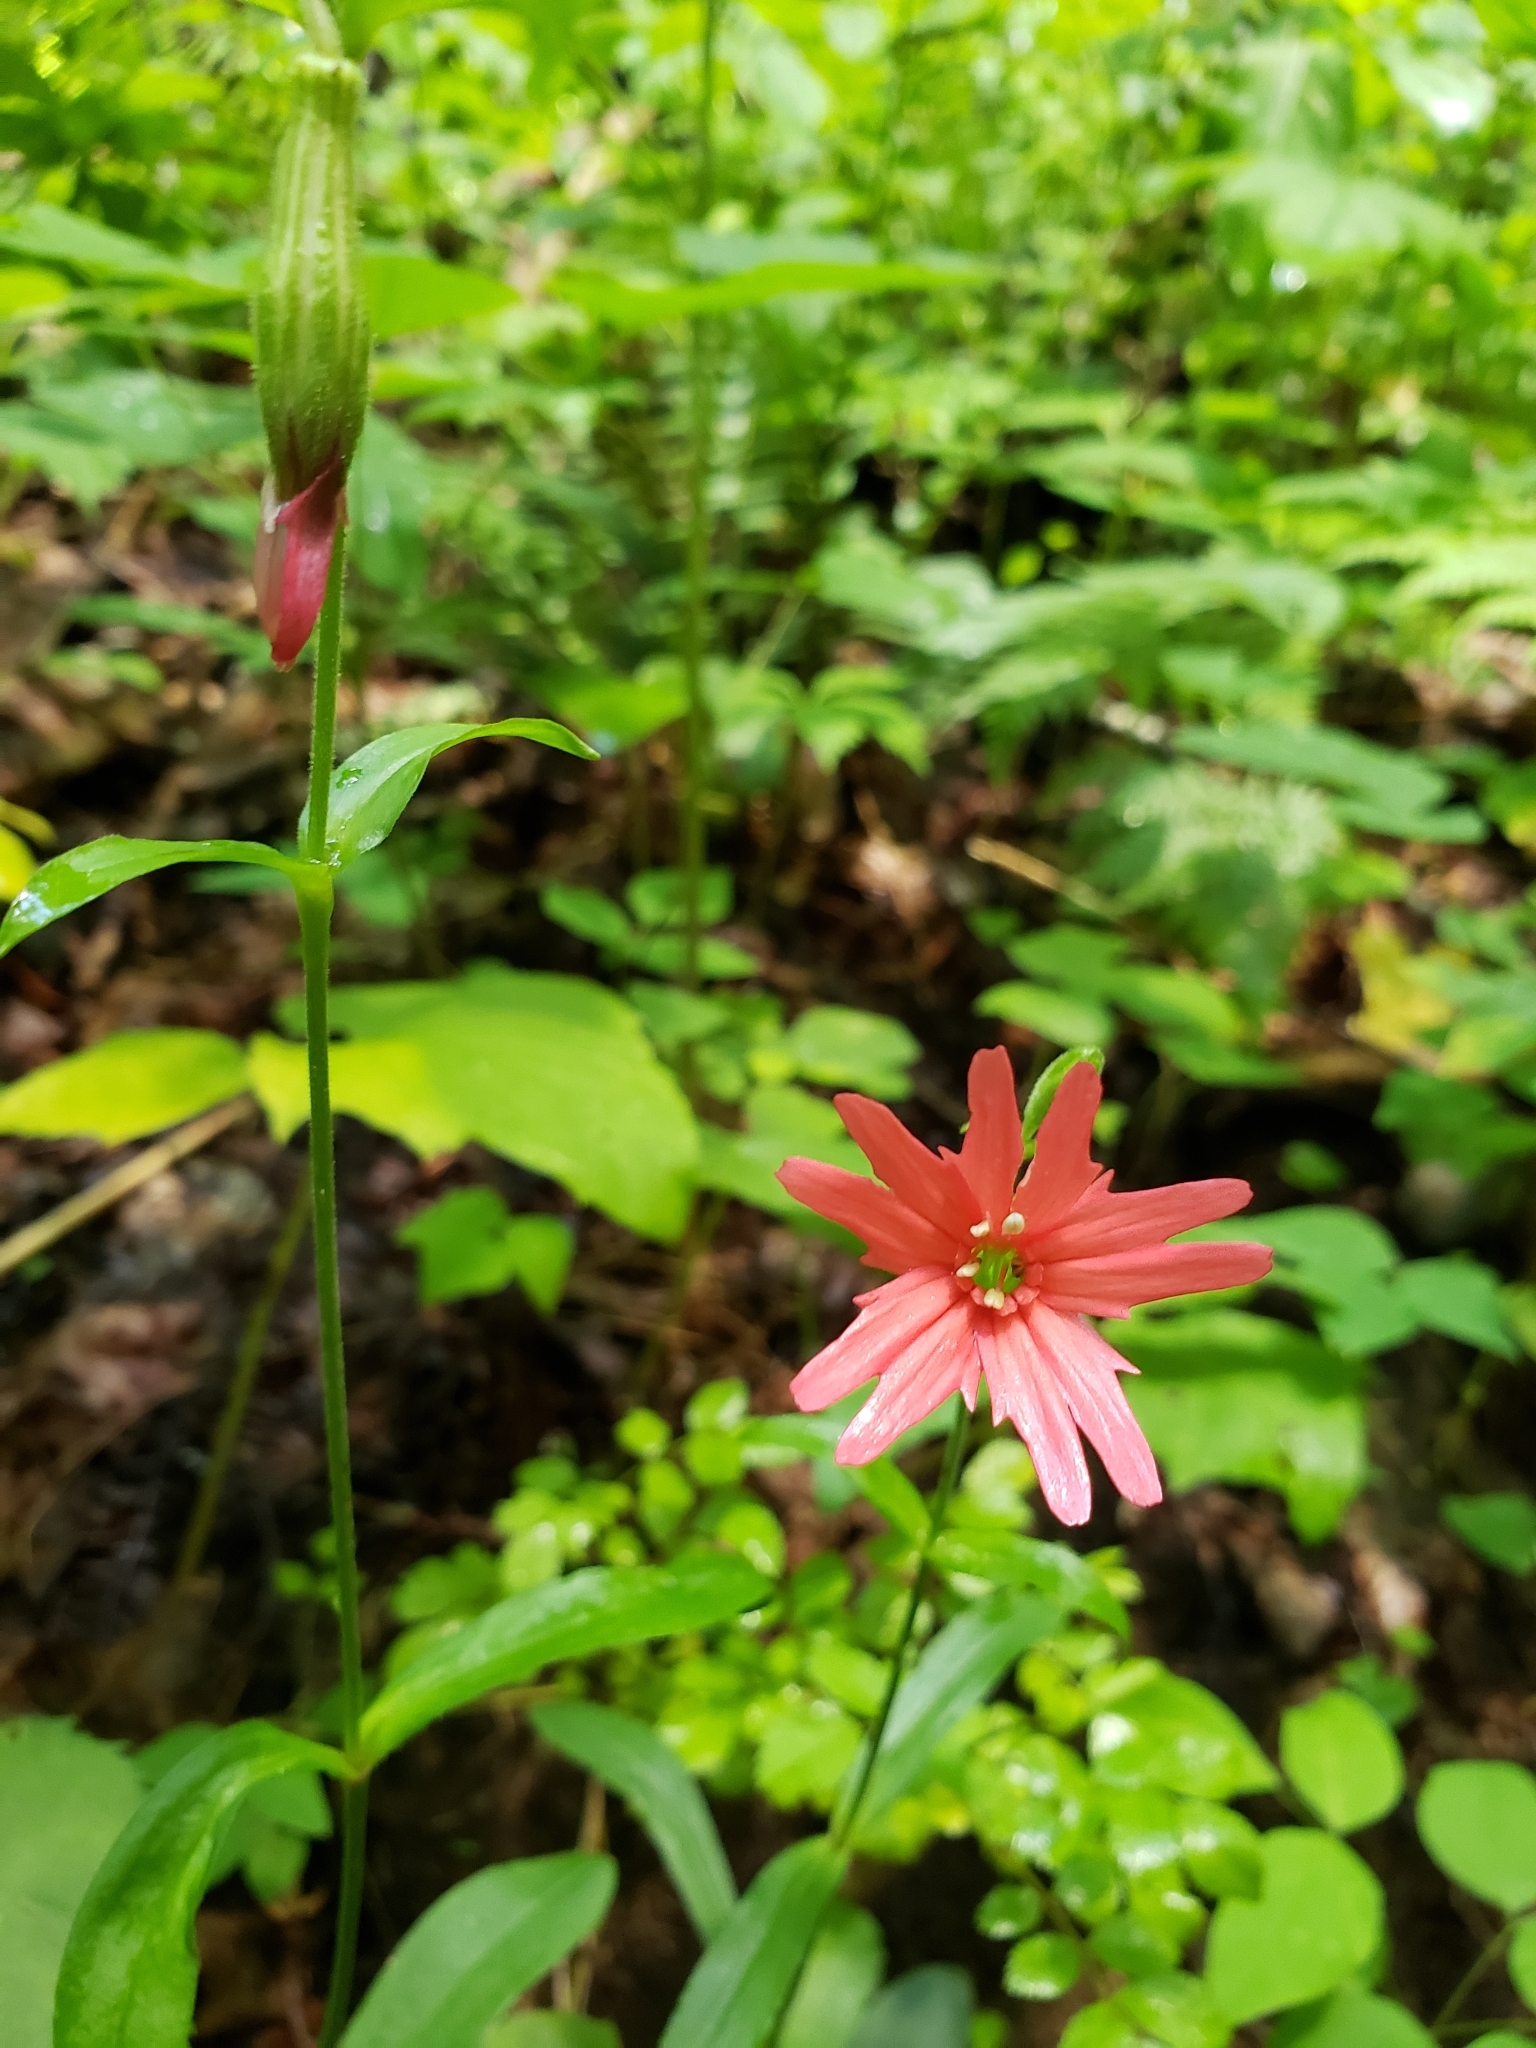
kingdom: Plantae
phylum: Tracheophyta
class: Magnoliopsida
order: Caryophyllales
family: Caryophyllaceae
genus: Silene
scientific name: Silene virginica
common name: Fire-pink
